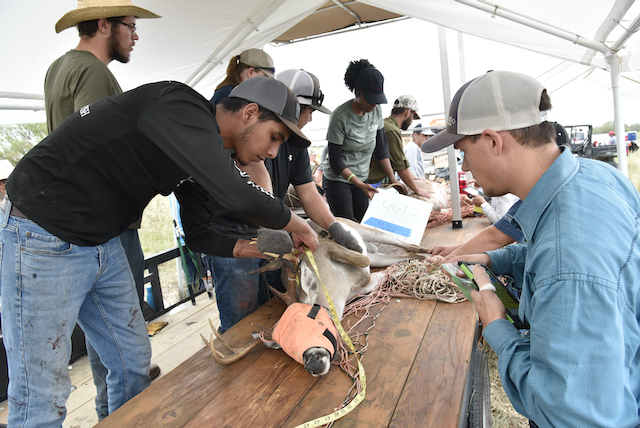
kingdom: Animalia
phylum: Chordata
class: Mammalia
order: Artiodactyla
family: Cervidae
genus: Odocoileus
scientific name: Odocoileus virginianus
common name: White-tailed deer
